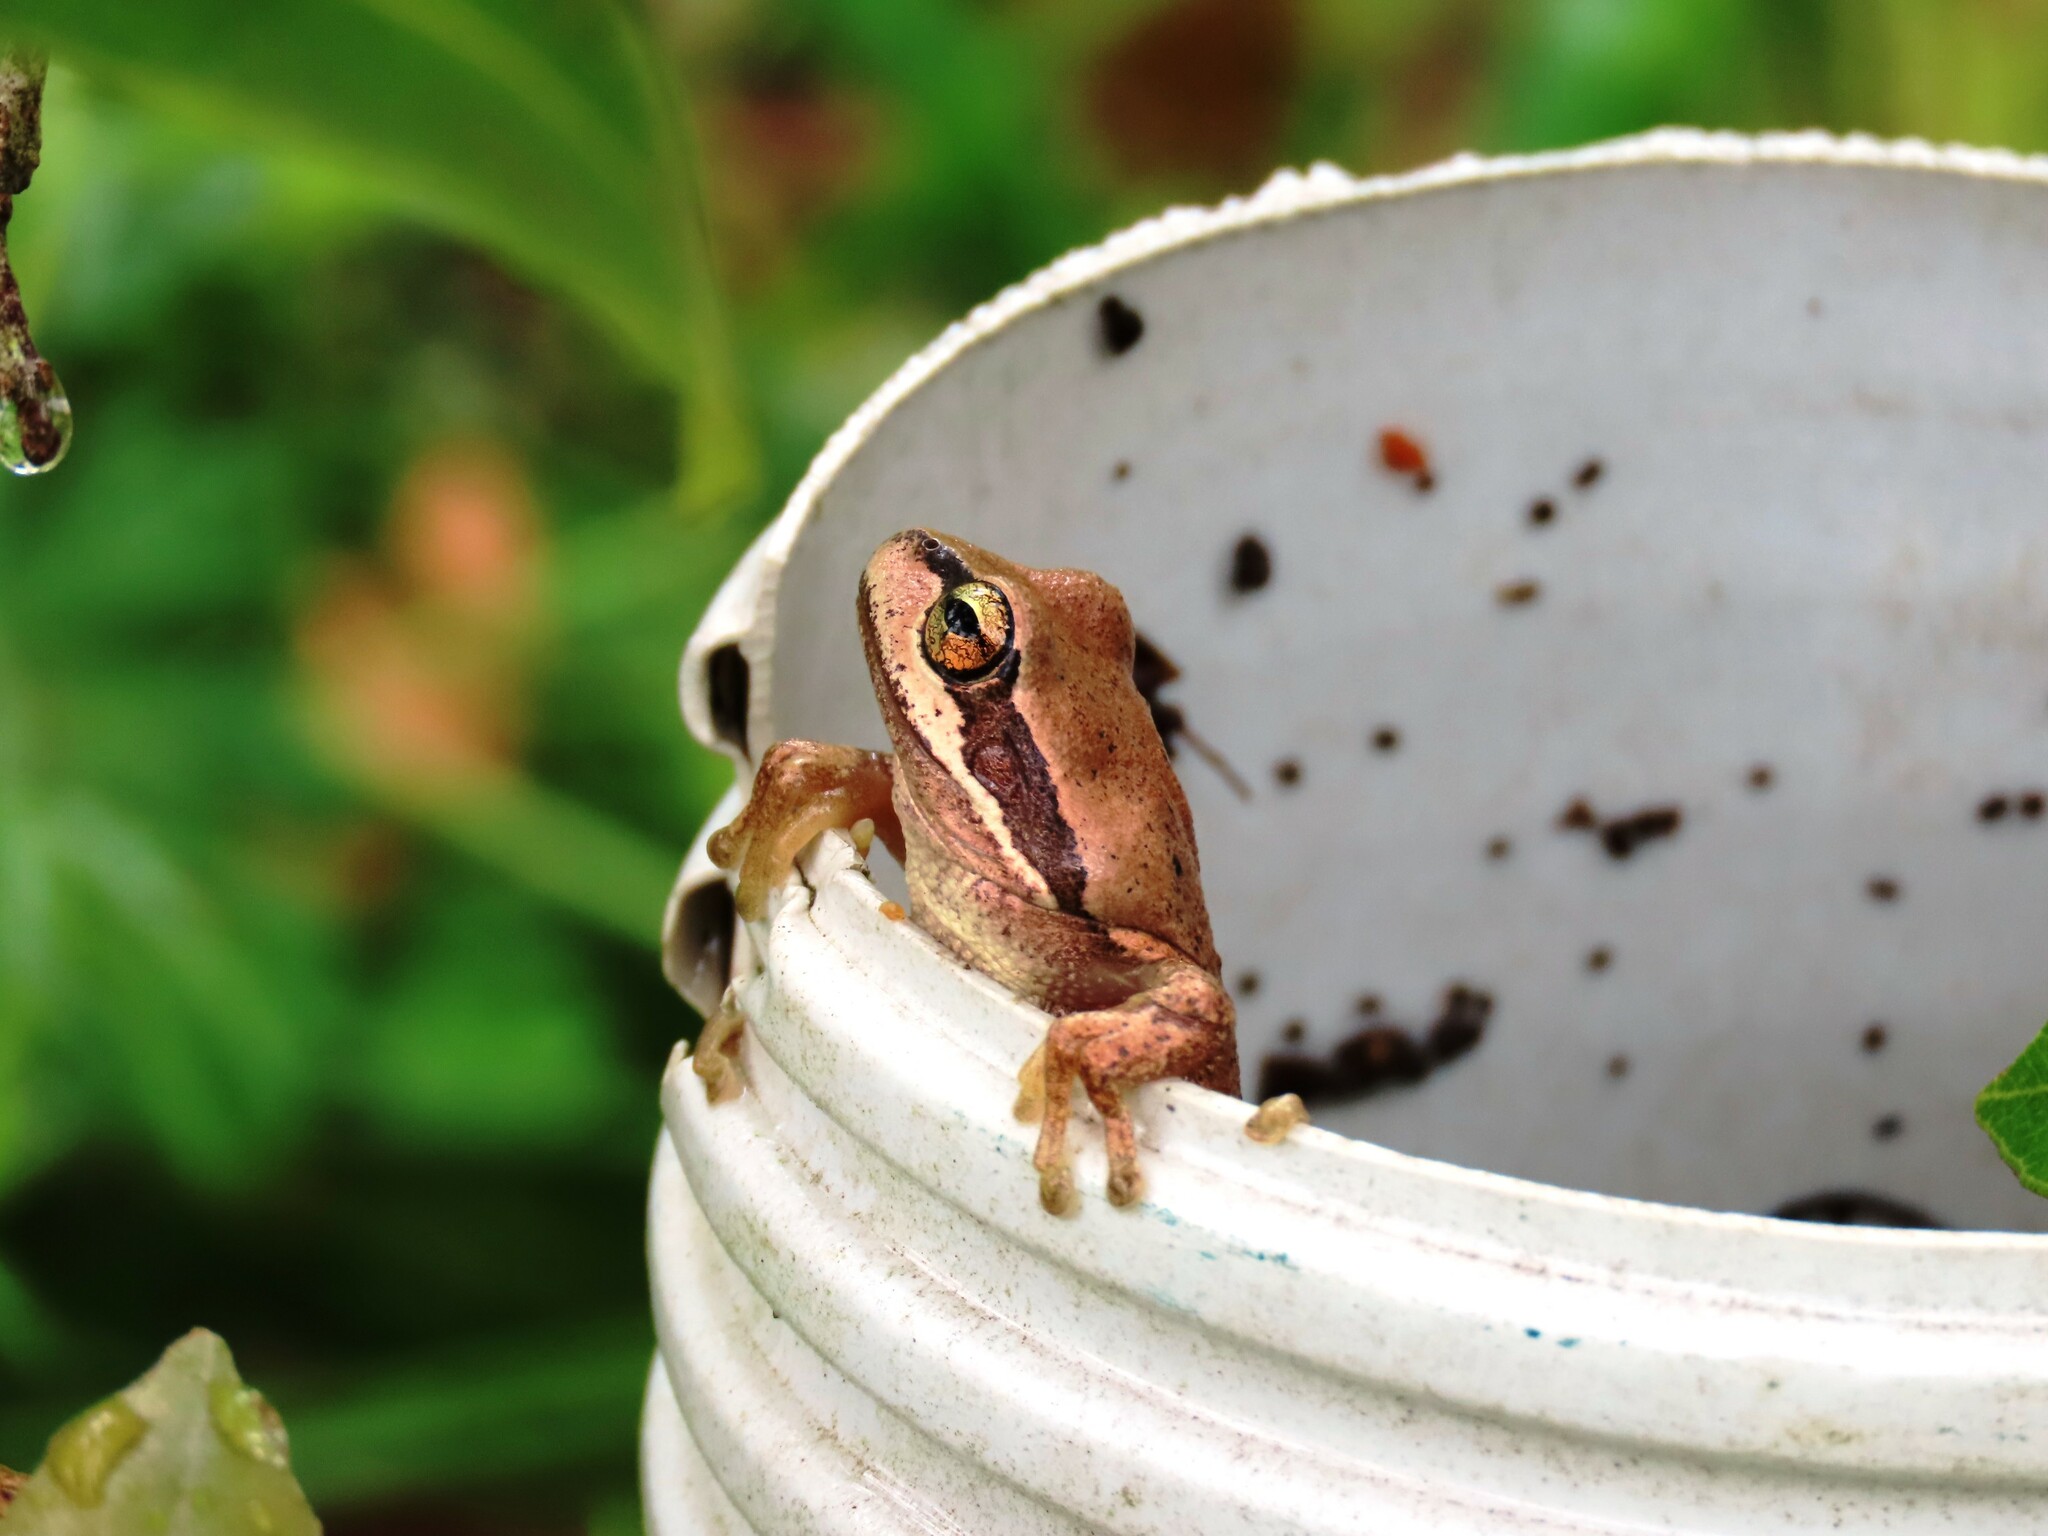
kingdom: Animalia
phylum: Chordata
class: Amphibia
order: Anura
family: Pelodryadidae
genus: Litoria
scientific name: Litoria ewingii
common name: Southern brown tree frog
